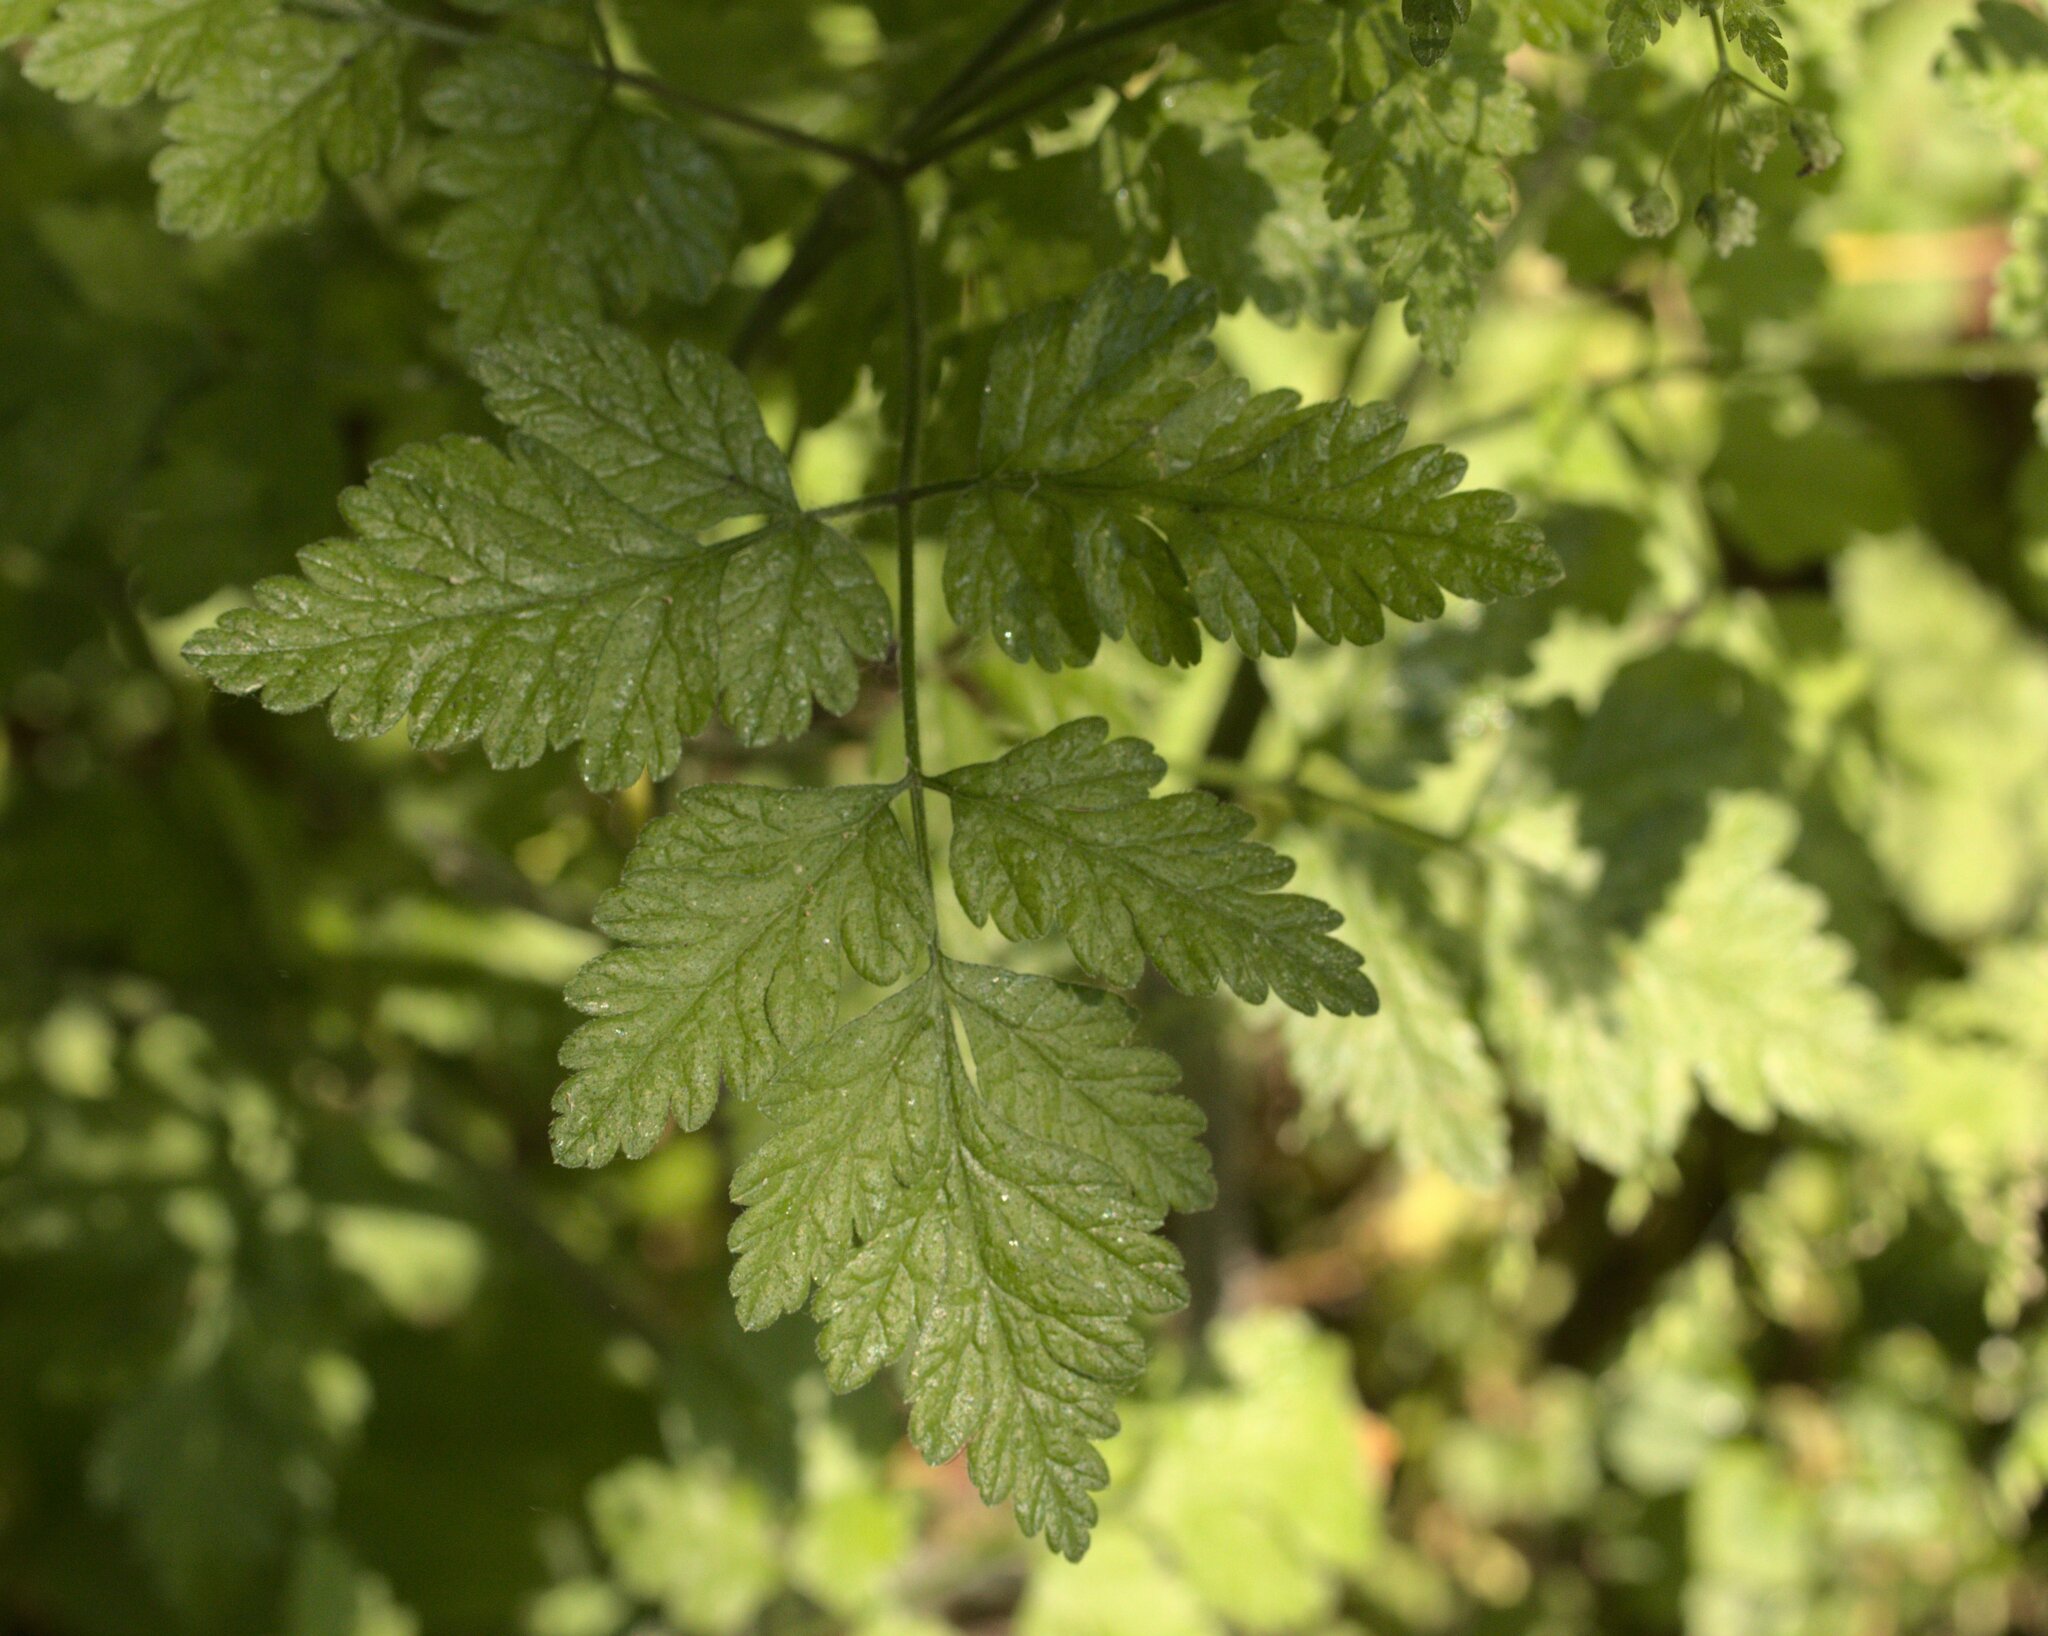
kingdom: Plantae
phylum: Tracheophyta
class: Magnoliopsida
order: Apiales
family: Apiaceae
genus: Chaerophyllum
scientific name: Chaerophyllum temulum
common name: Rough chervil
